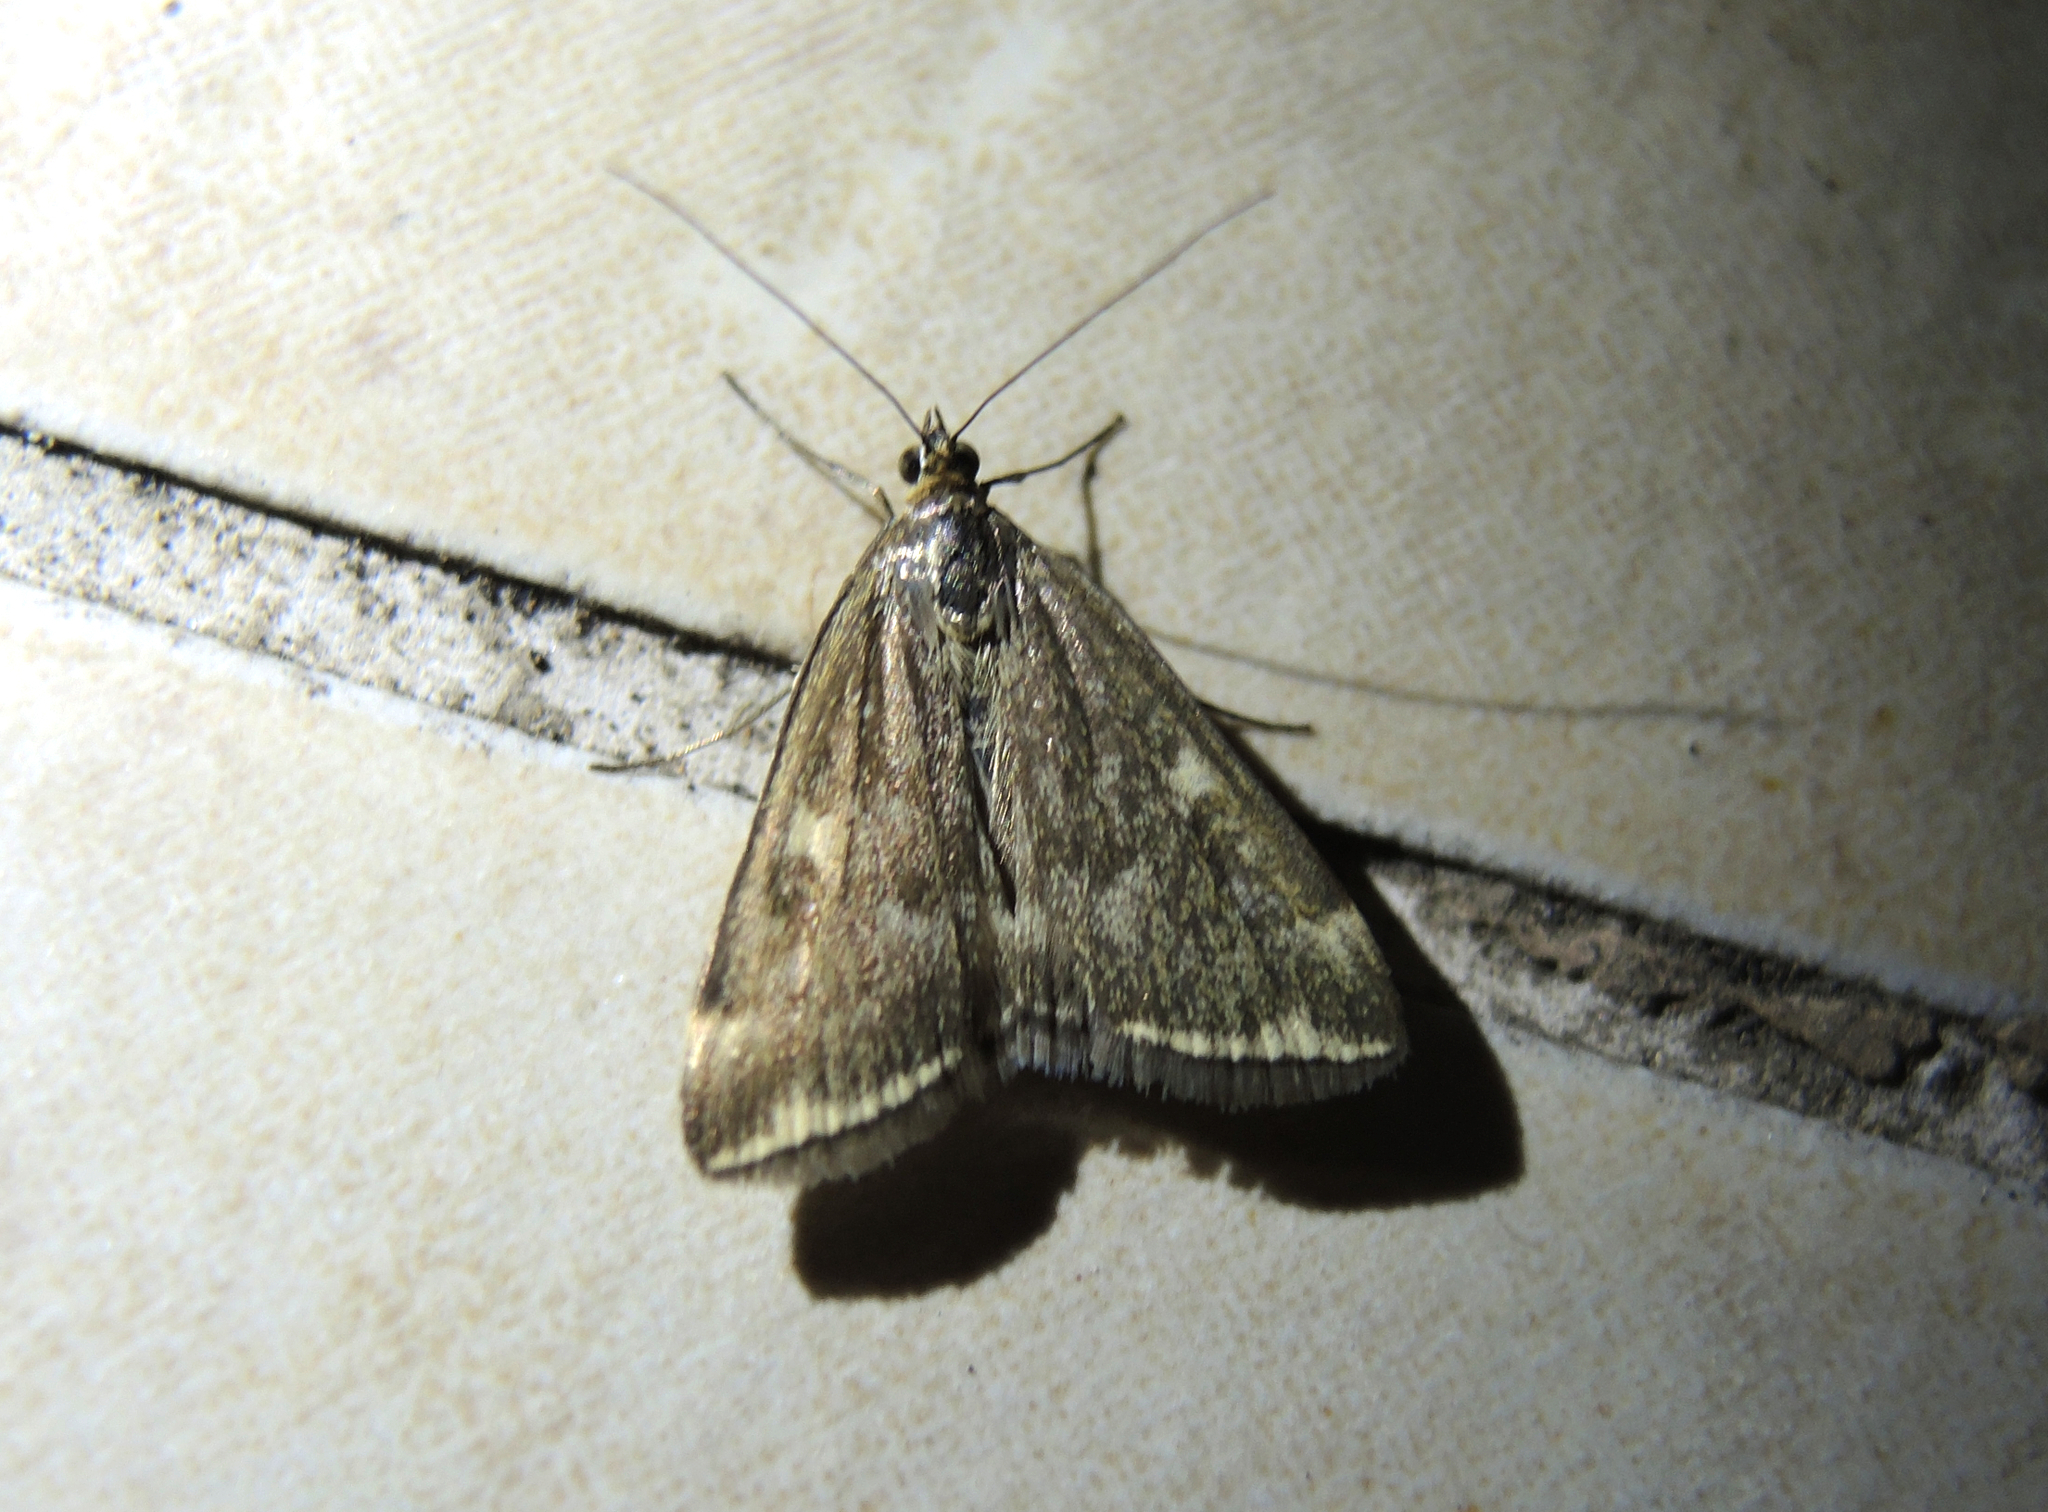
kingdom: Animalia
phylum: Arthropoda
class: Insecta
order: Lepidoptera
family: Crambidae
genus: Loxostege
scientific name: Loxostege sticticalis
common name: Crambid moth
